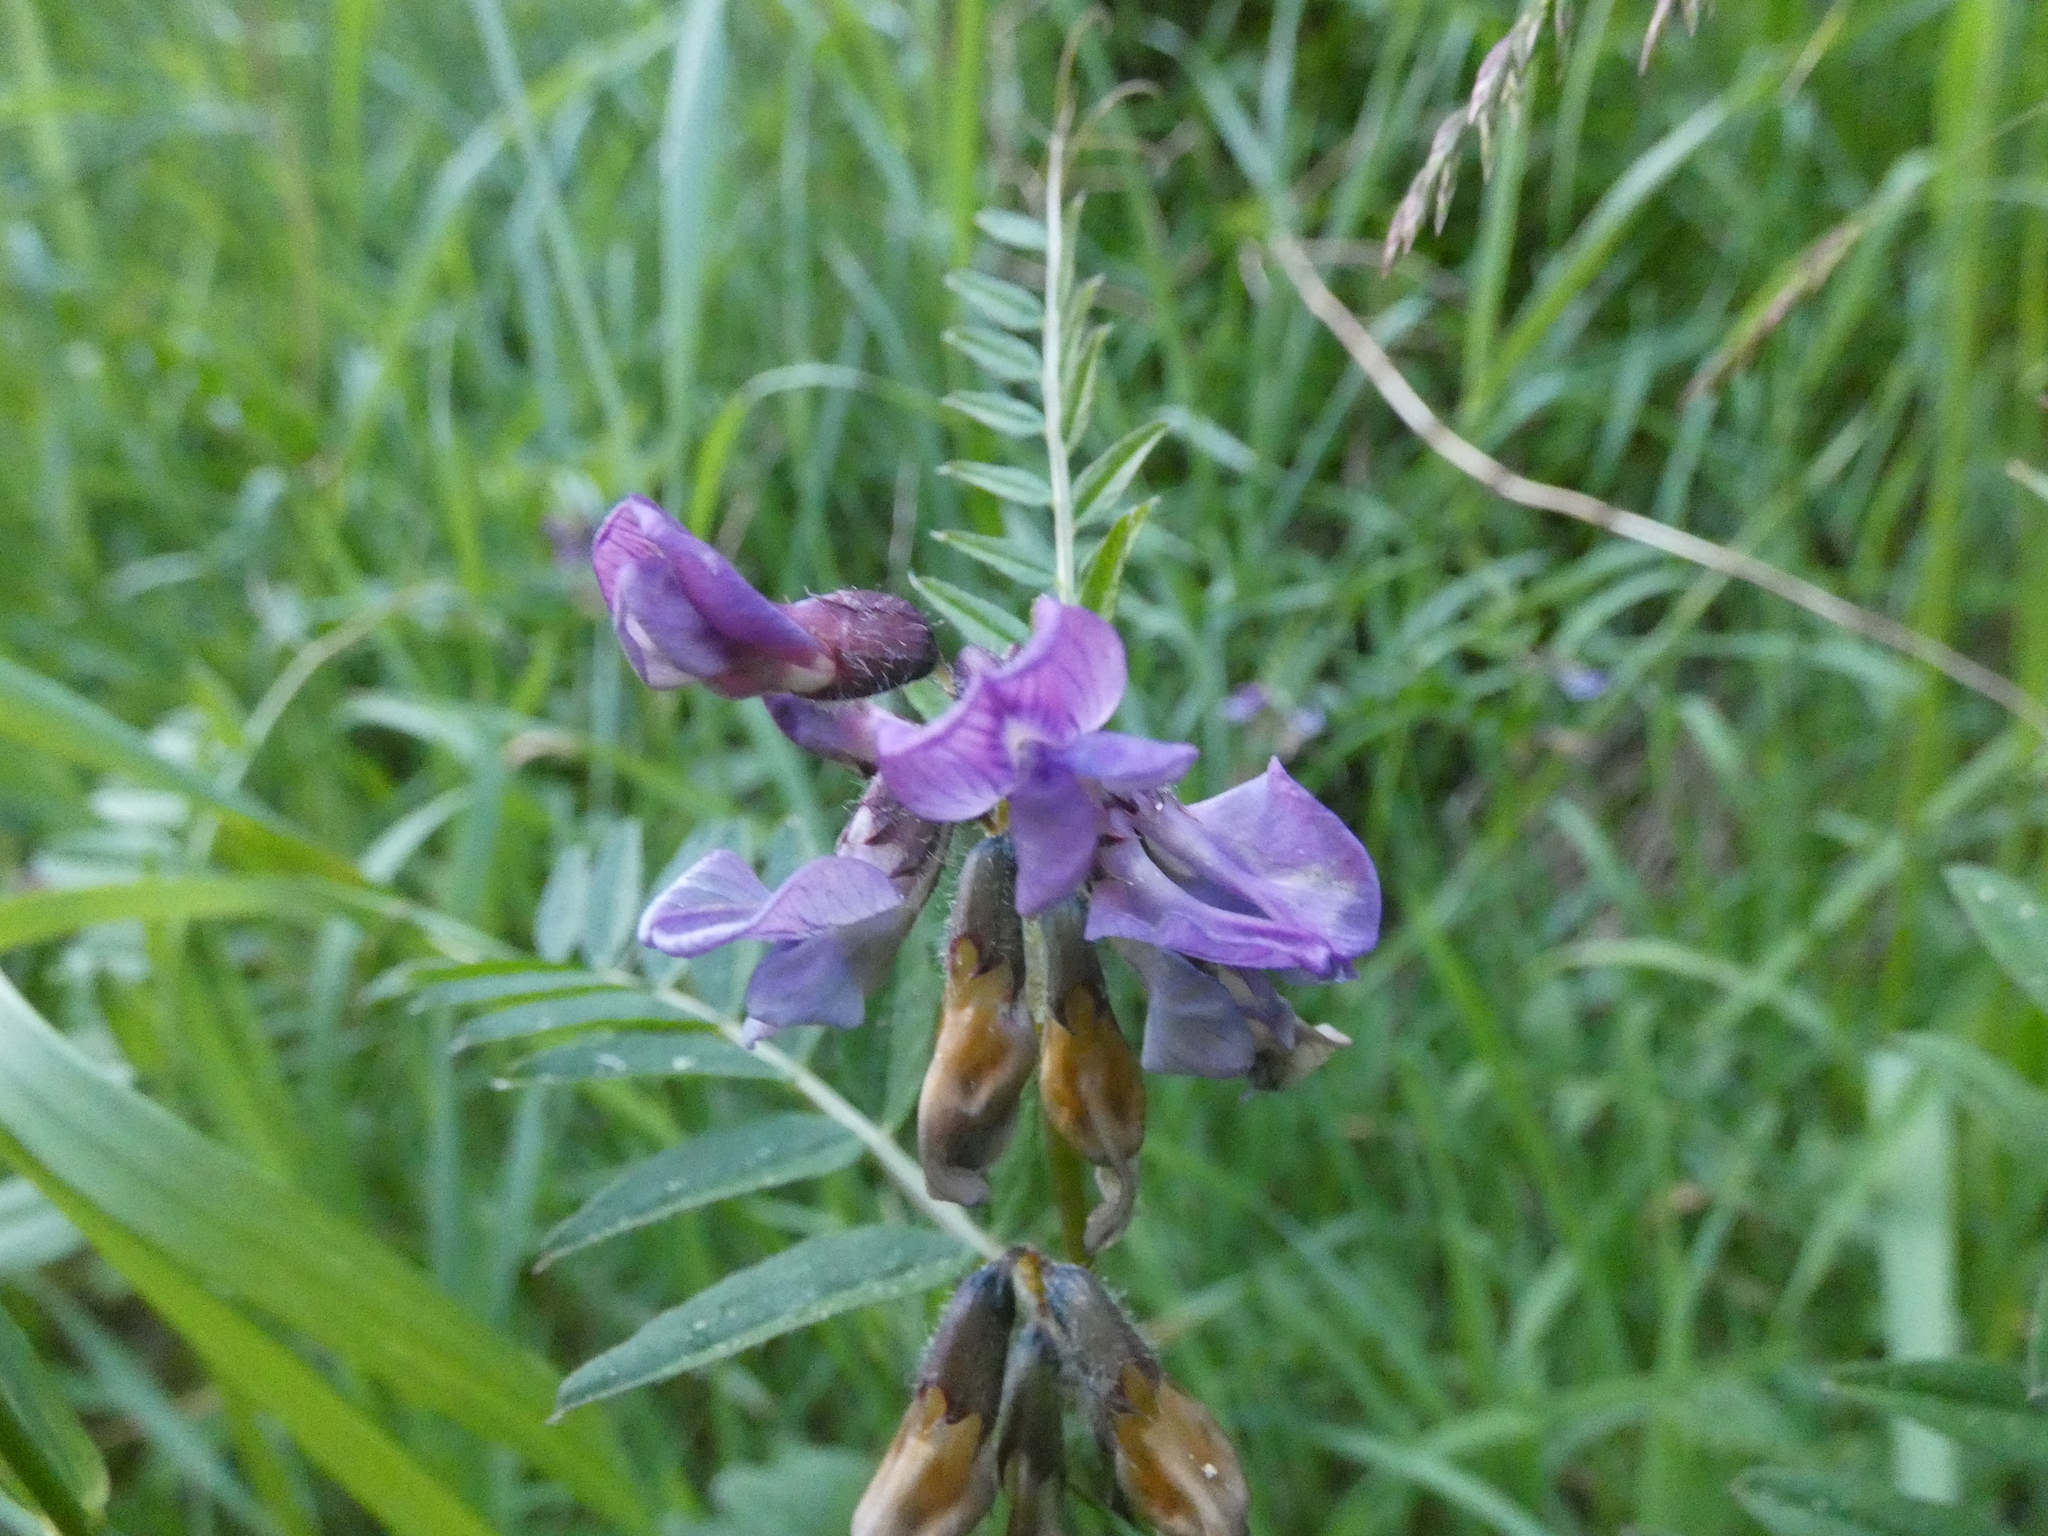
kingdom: Plantae
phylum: Tracheophyta
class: Magnoliopsida
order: Fabales
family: Fabaceae
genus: Vicia
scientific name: Vicia sepium
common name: Bush vetch
